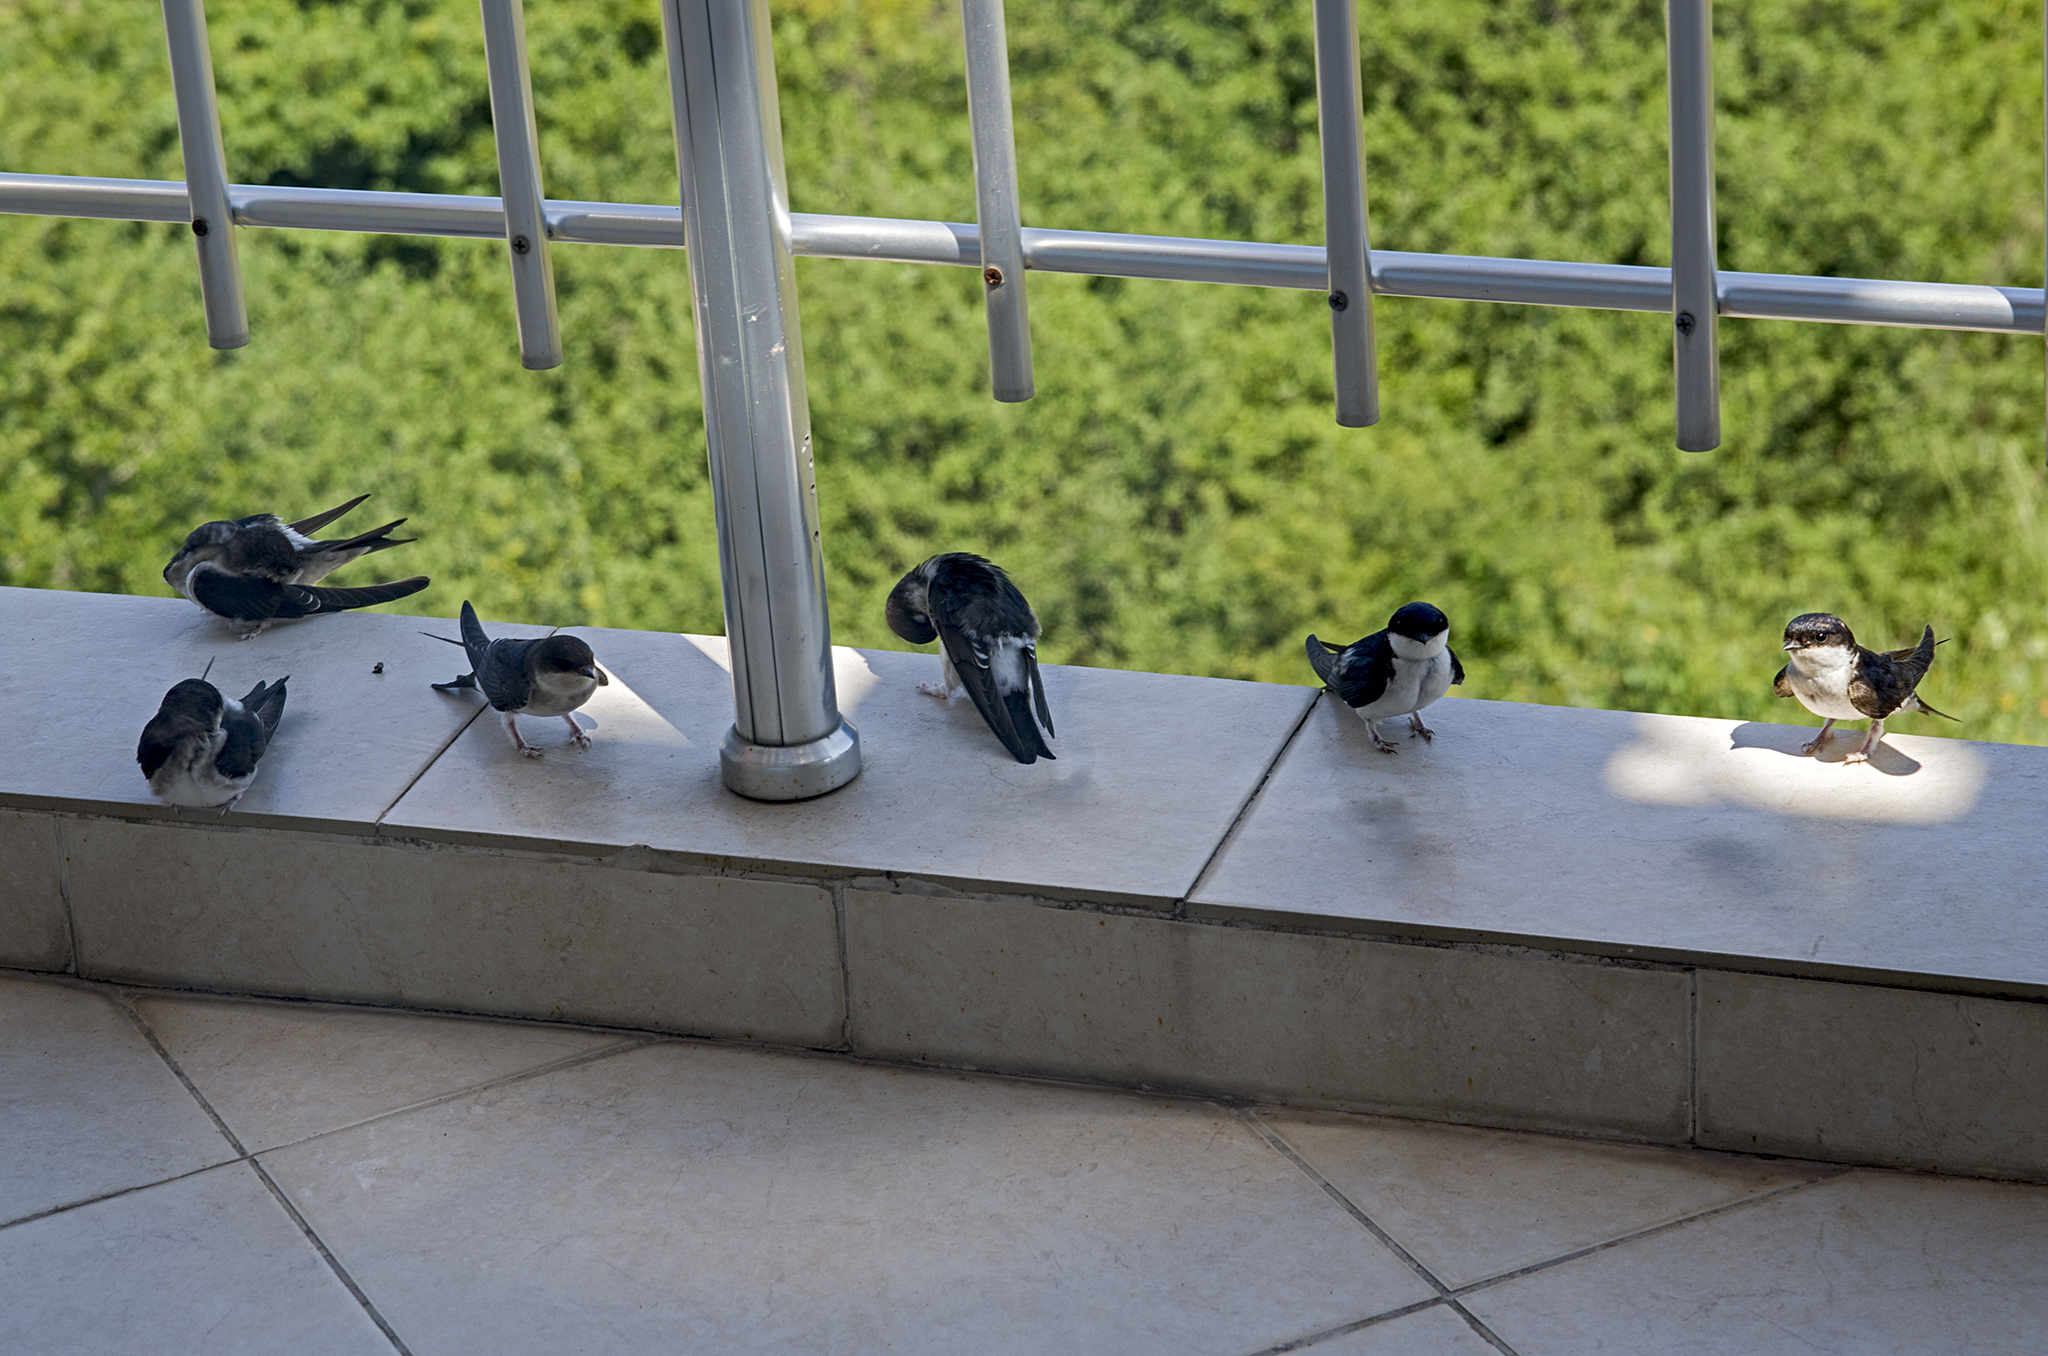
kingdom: Animalia
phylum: Chordata
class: Aves
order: Passeriformes
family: Hirundinidae
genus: Delichon
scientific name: Delichon urbicum
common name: Common house martin
